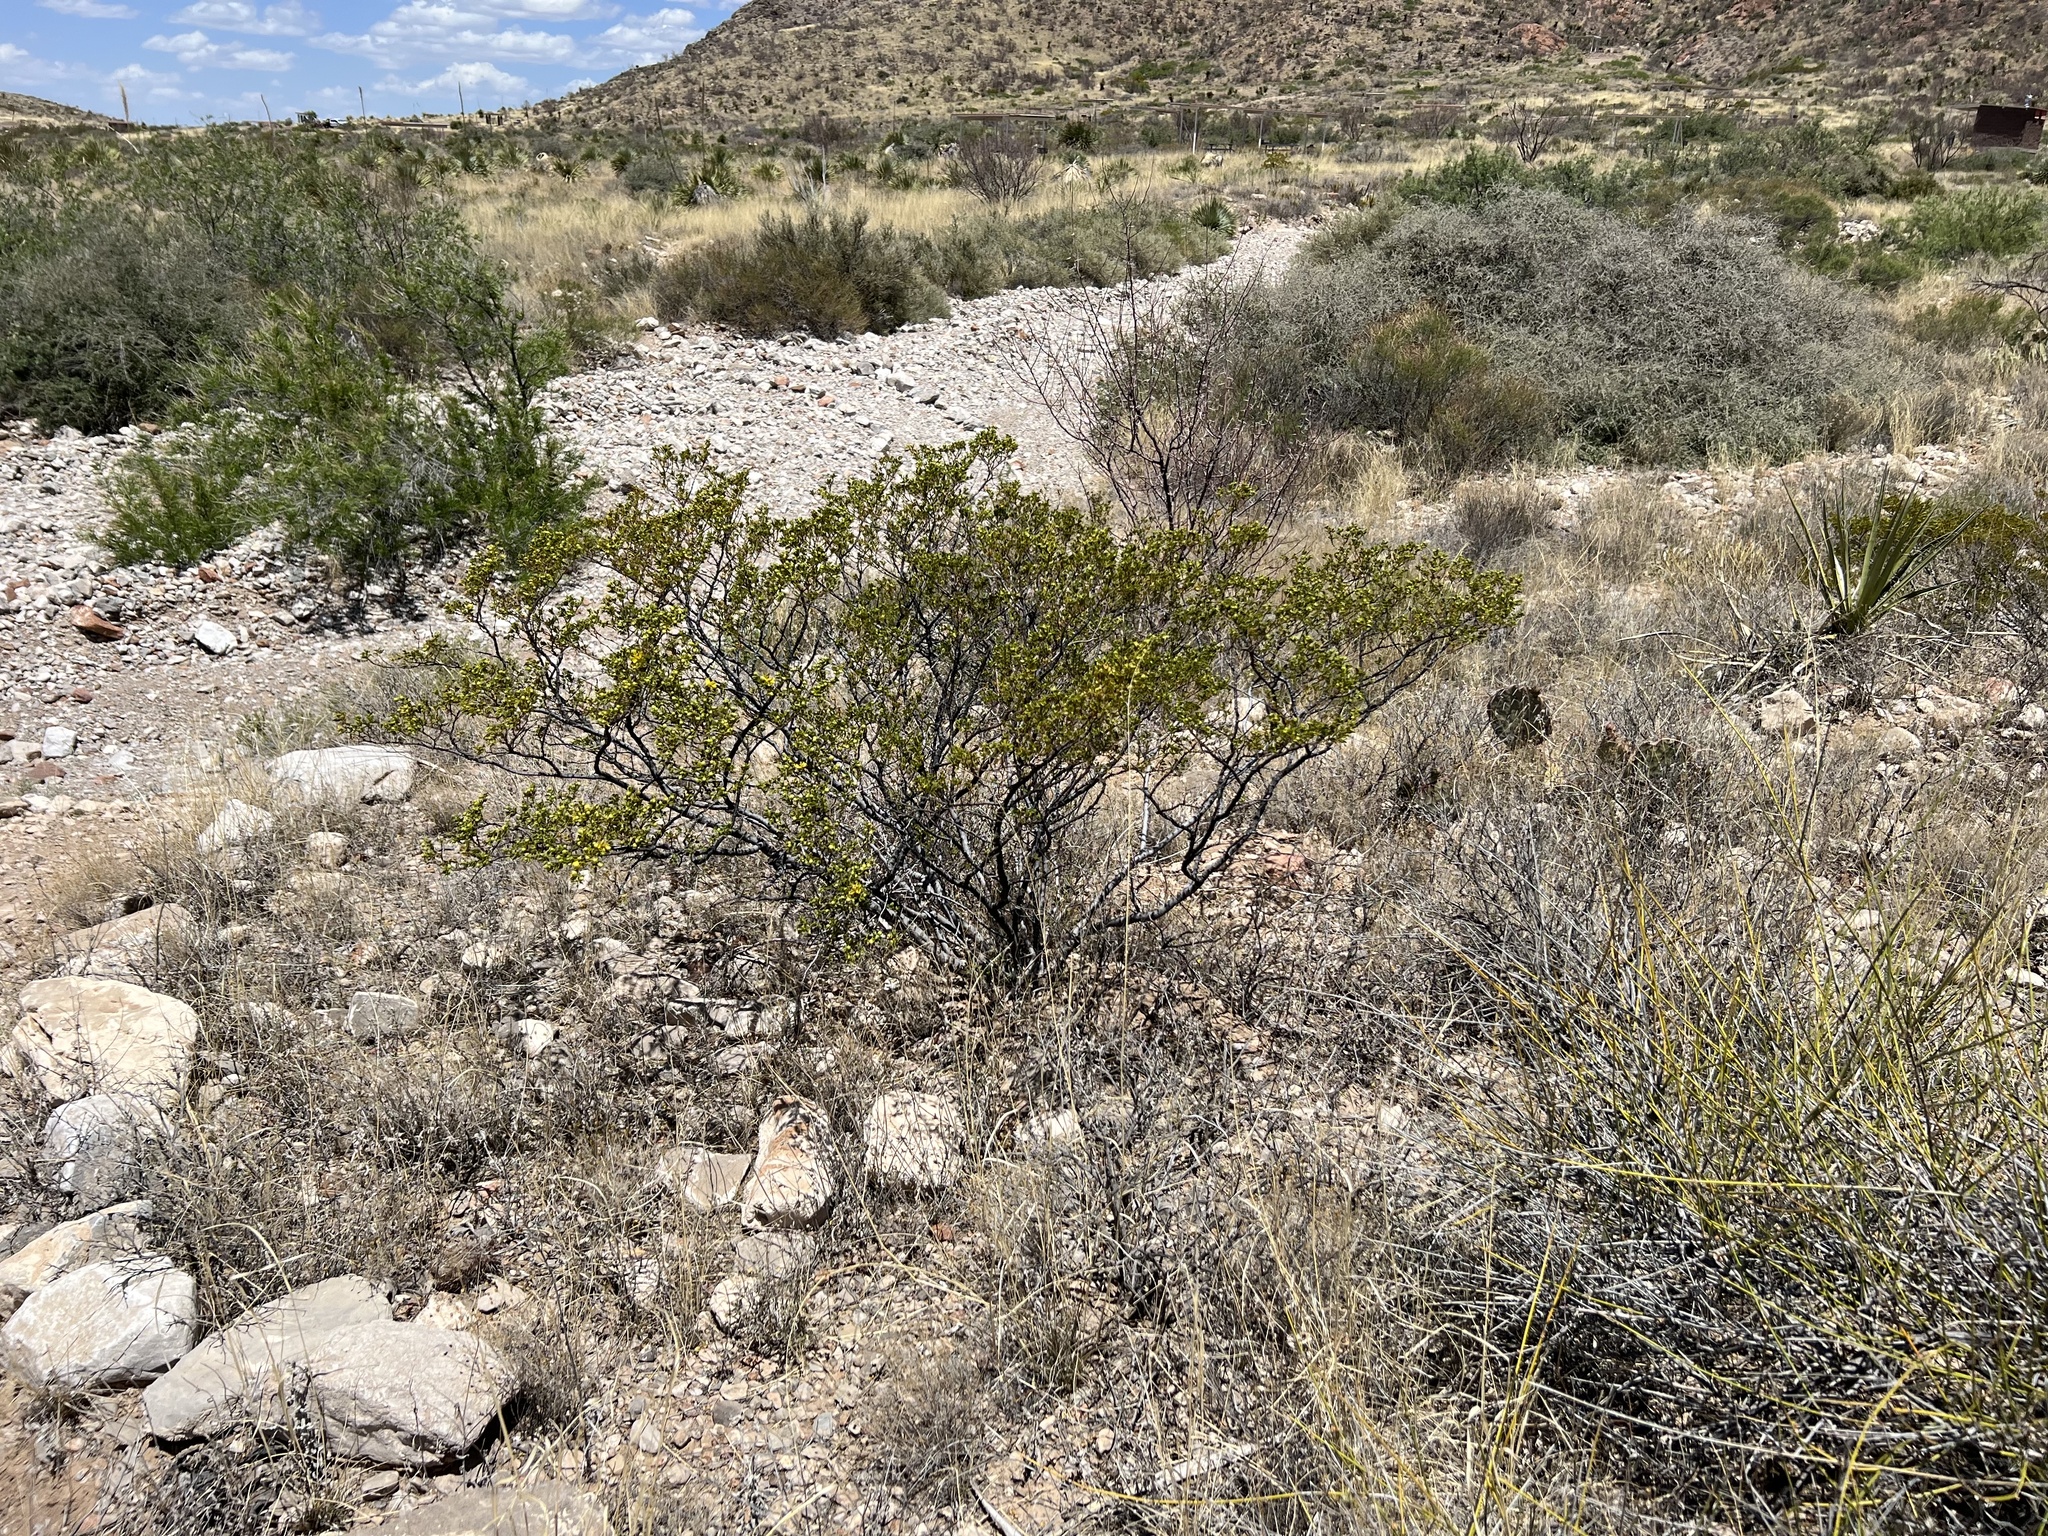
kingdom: Plantae
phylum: Tracheophyta
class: Magnoliopsida
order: Zygophyllales
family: Zygophyllaceae
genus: Larrea
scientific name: Larrea tridentata
